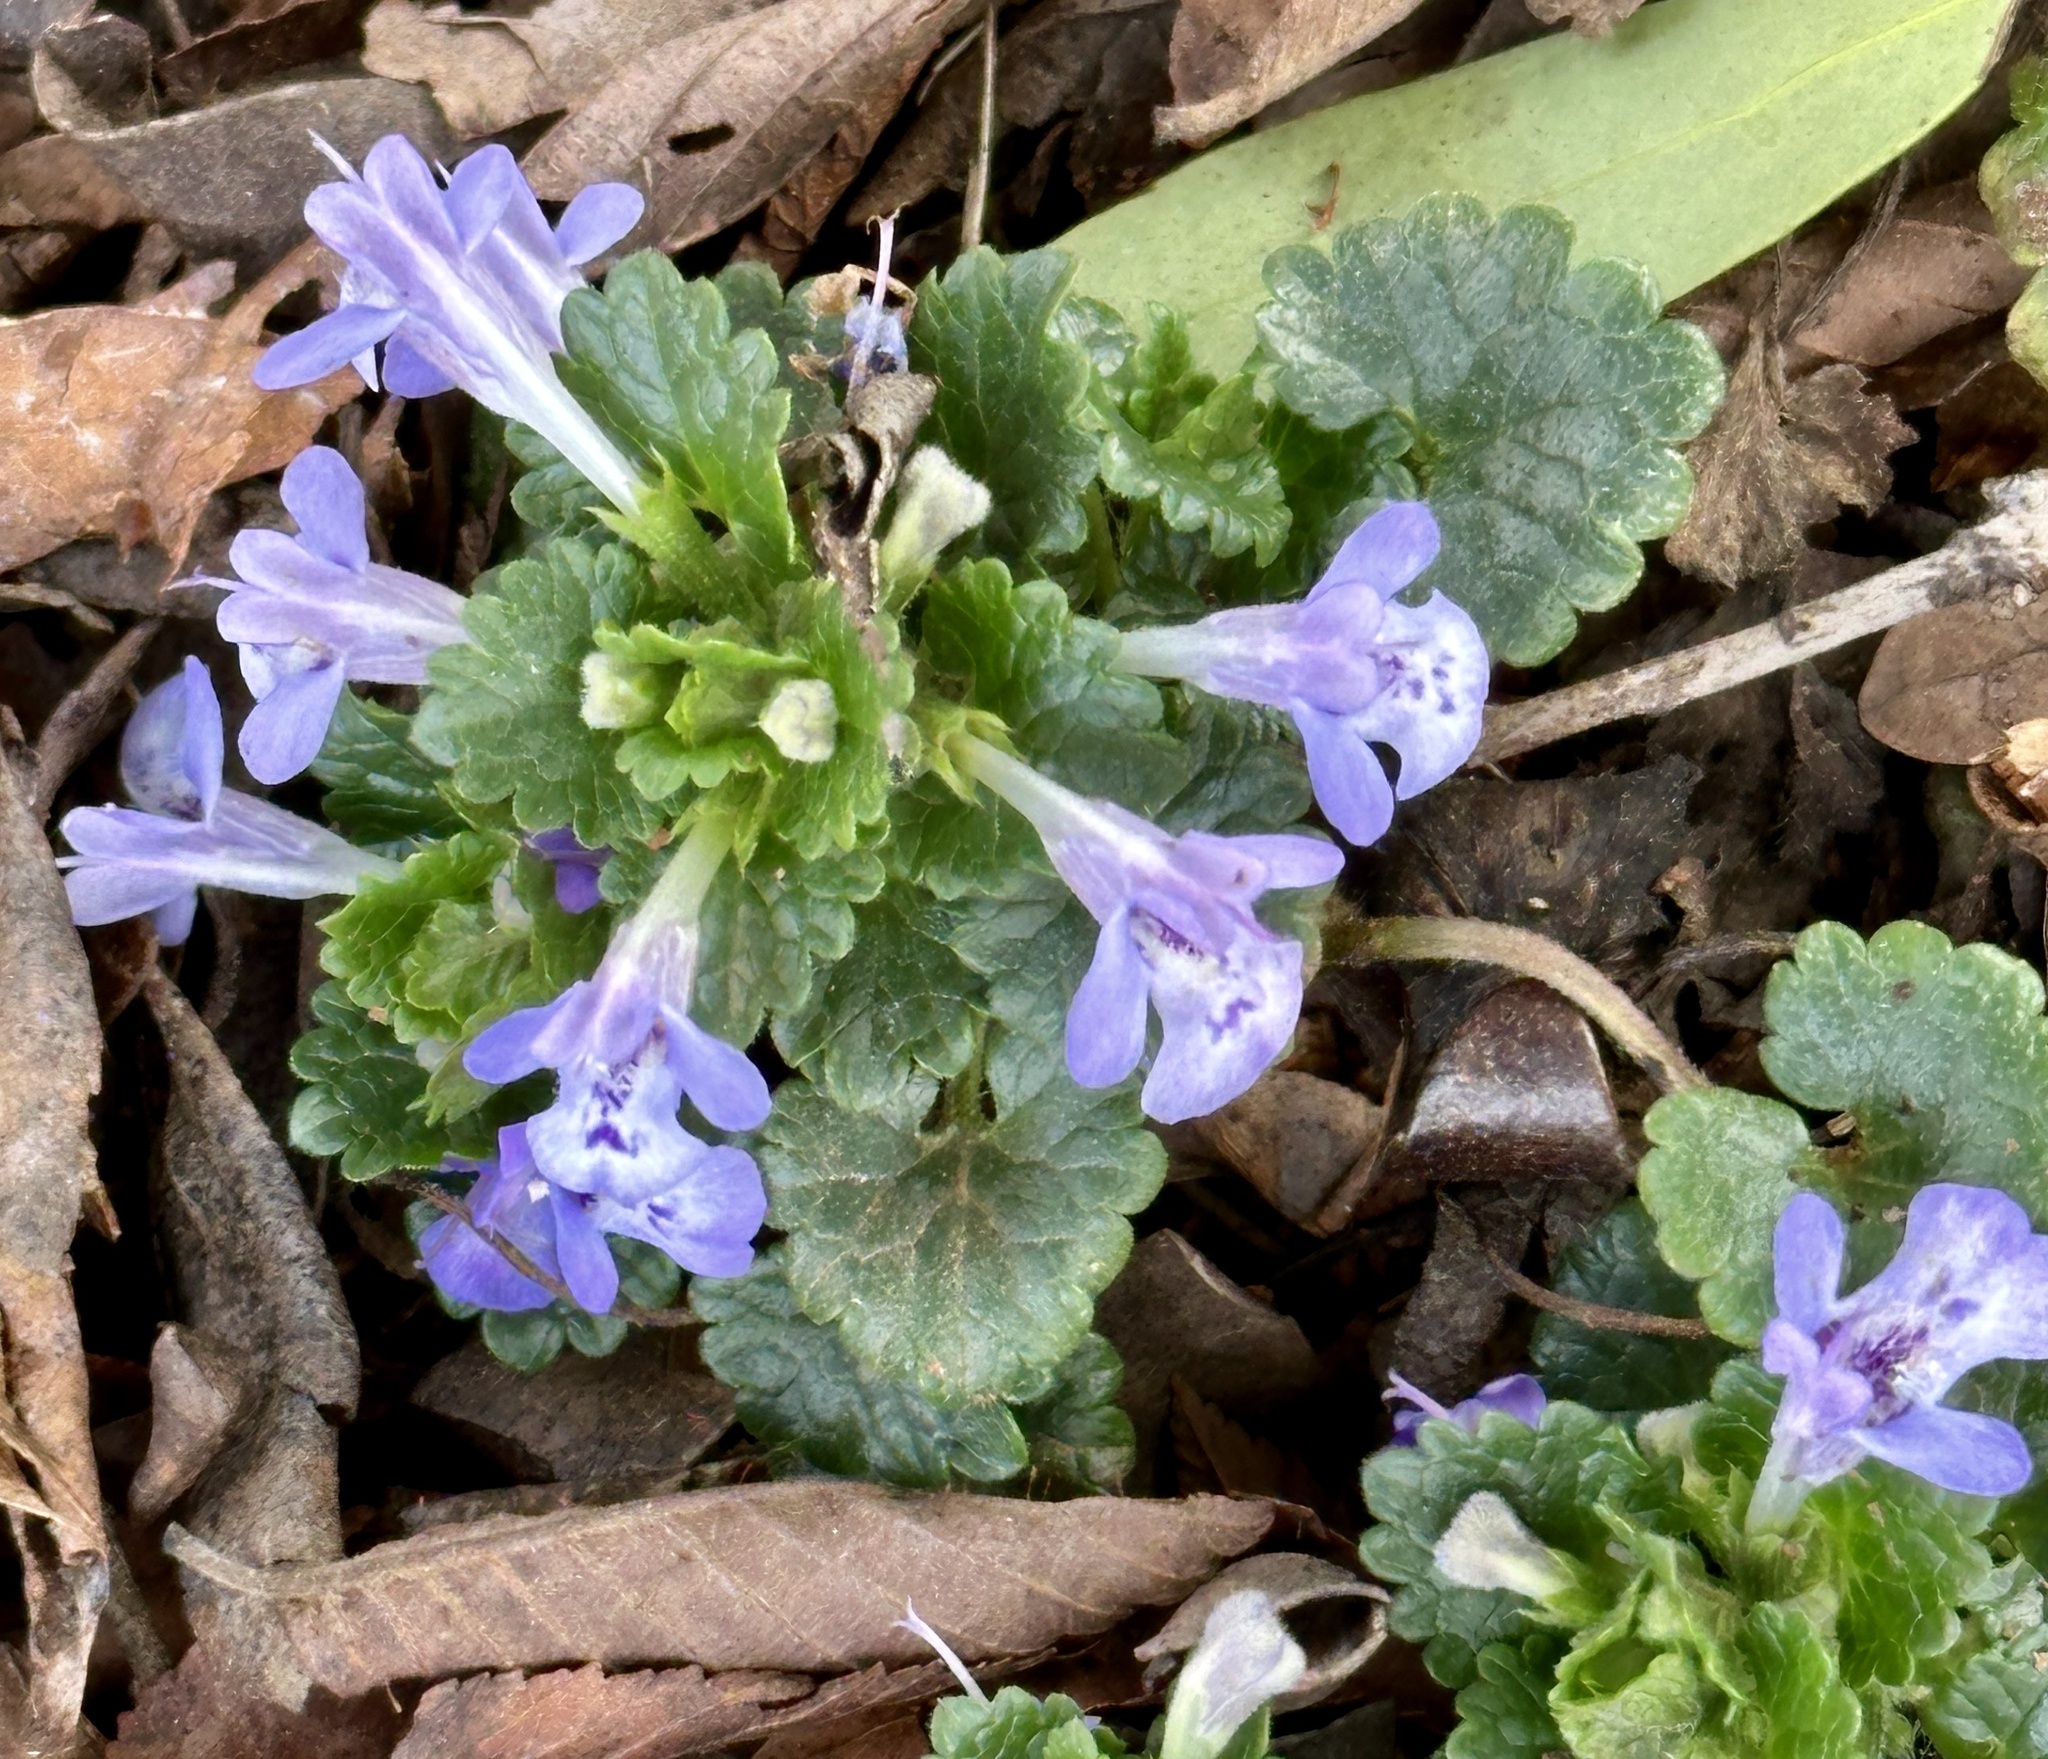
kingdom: Plantae
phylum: Tracheophyta
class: Magnoliopsida
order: Lamiales
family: Lamiaceae
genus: Glechoma
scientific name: Glechoma hederacea
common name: Ground ivy
